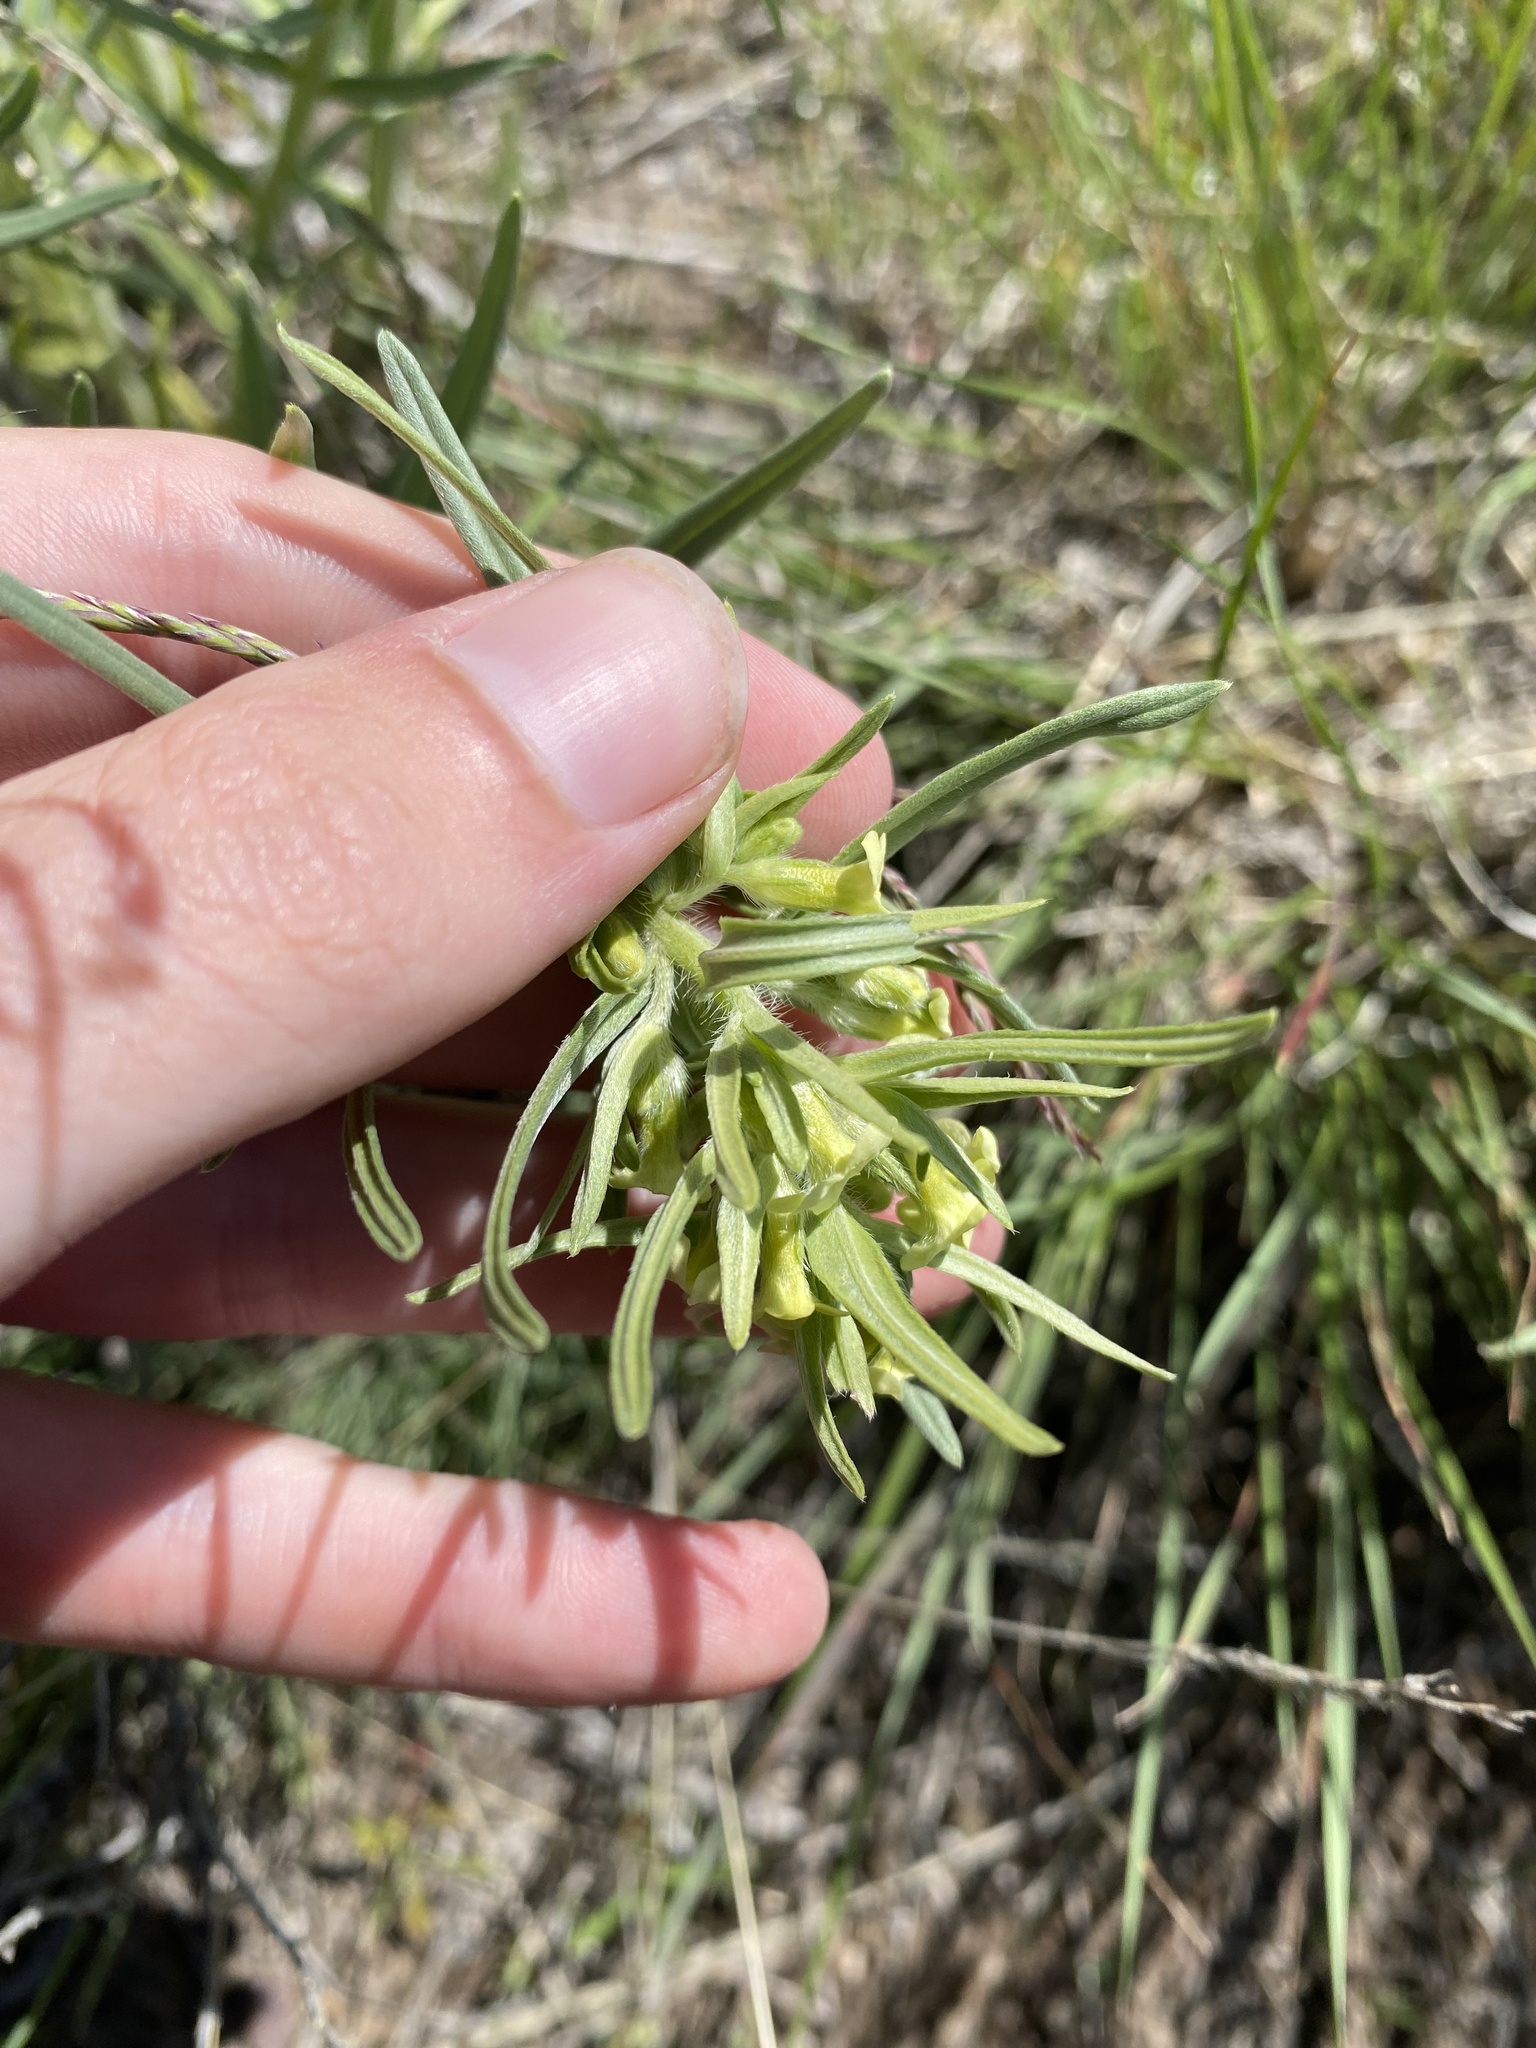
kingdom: Plantae
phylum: Tracheophyta
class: Magnoliopsida
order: Boraginales
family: Boraginaceae
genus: Lithospermum
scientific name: Lithospermum ruderale
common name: Western gromwell
